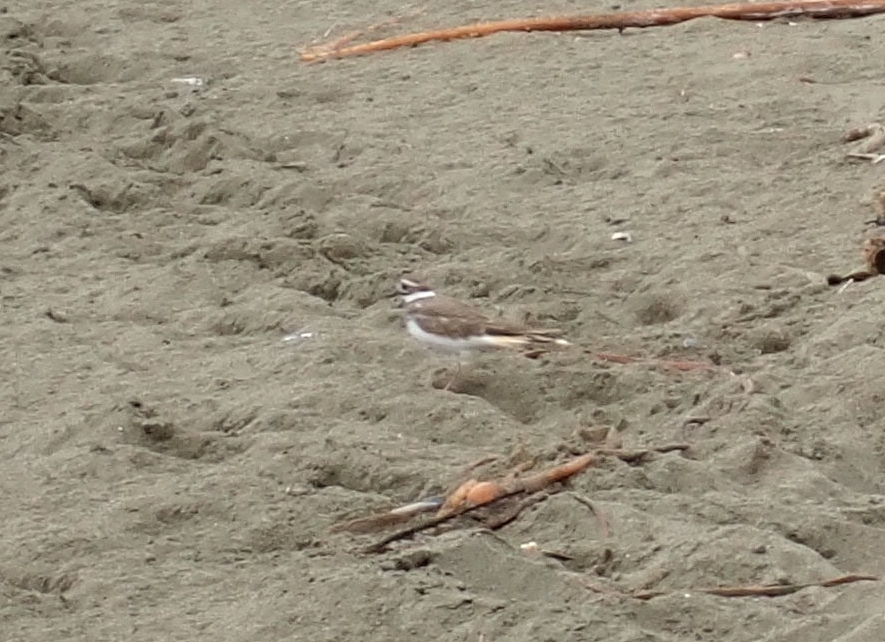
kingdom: Animalia
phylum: Chordata
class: Aves
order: Charadriiformes
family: Charadriidae
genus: Charadrius
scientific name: Charadrius vociferus
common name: Killdeer
